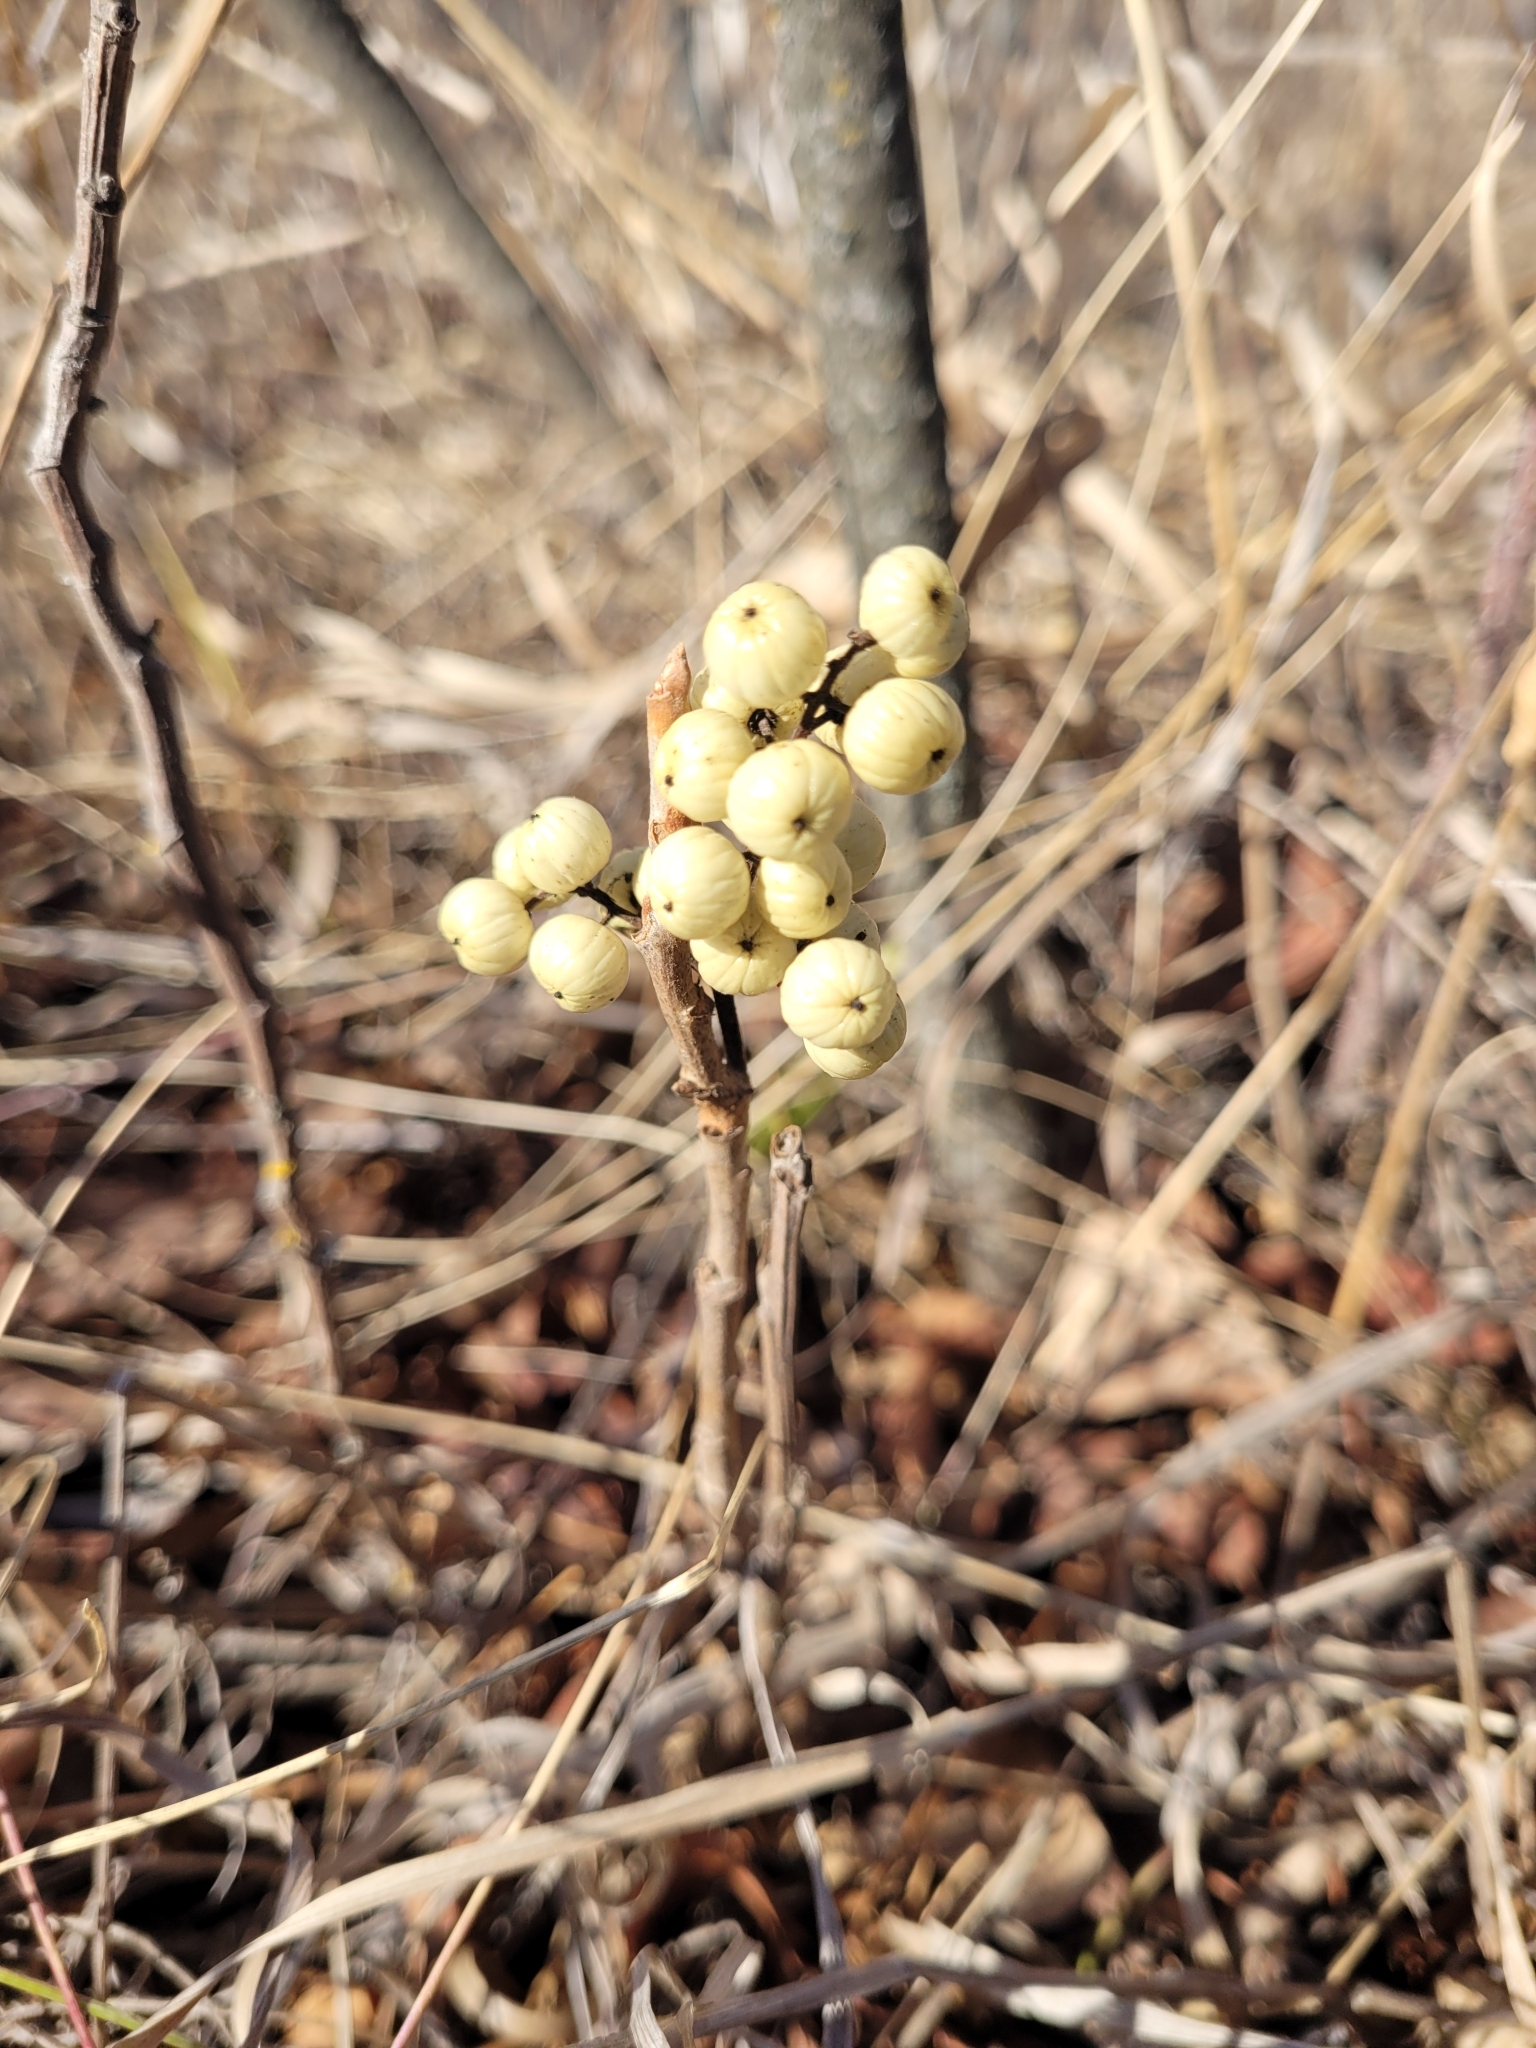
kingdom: Plantae
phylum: Tracheophyta
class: Magnoliopsida
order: Sapindales
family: Anacardiaceae
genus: Toxicodendron
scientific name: Toxicodendron rydbergii
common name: Rydberg's poison-ivy
